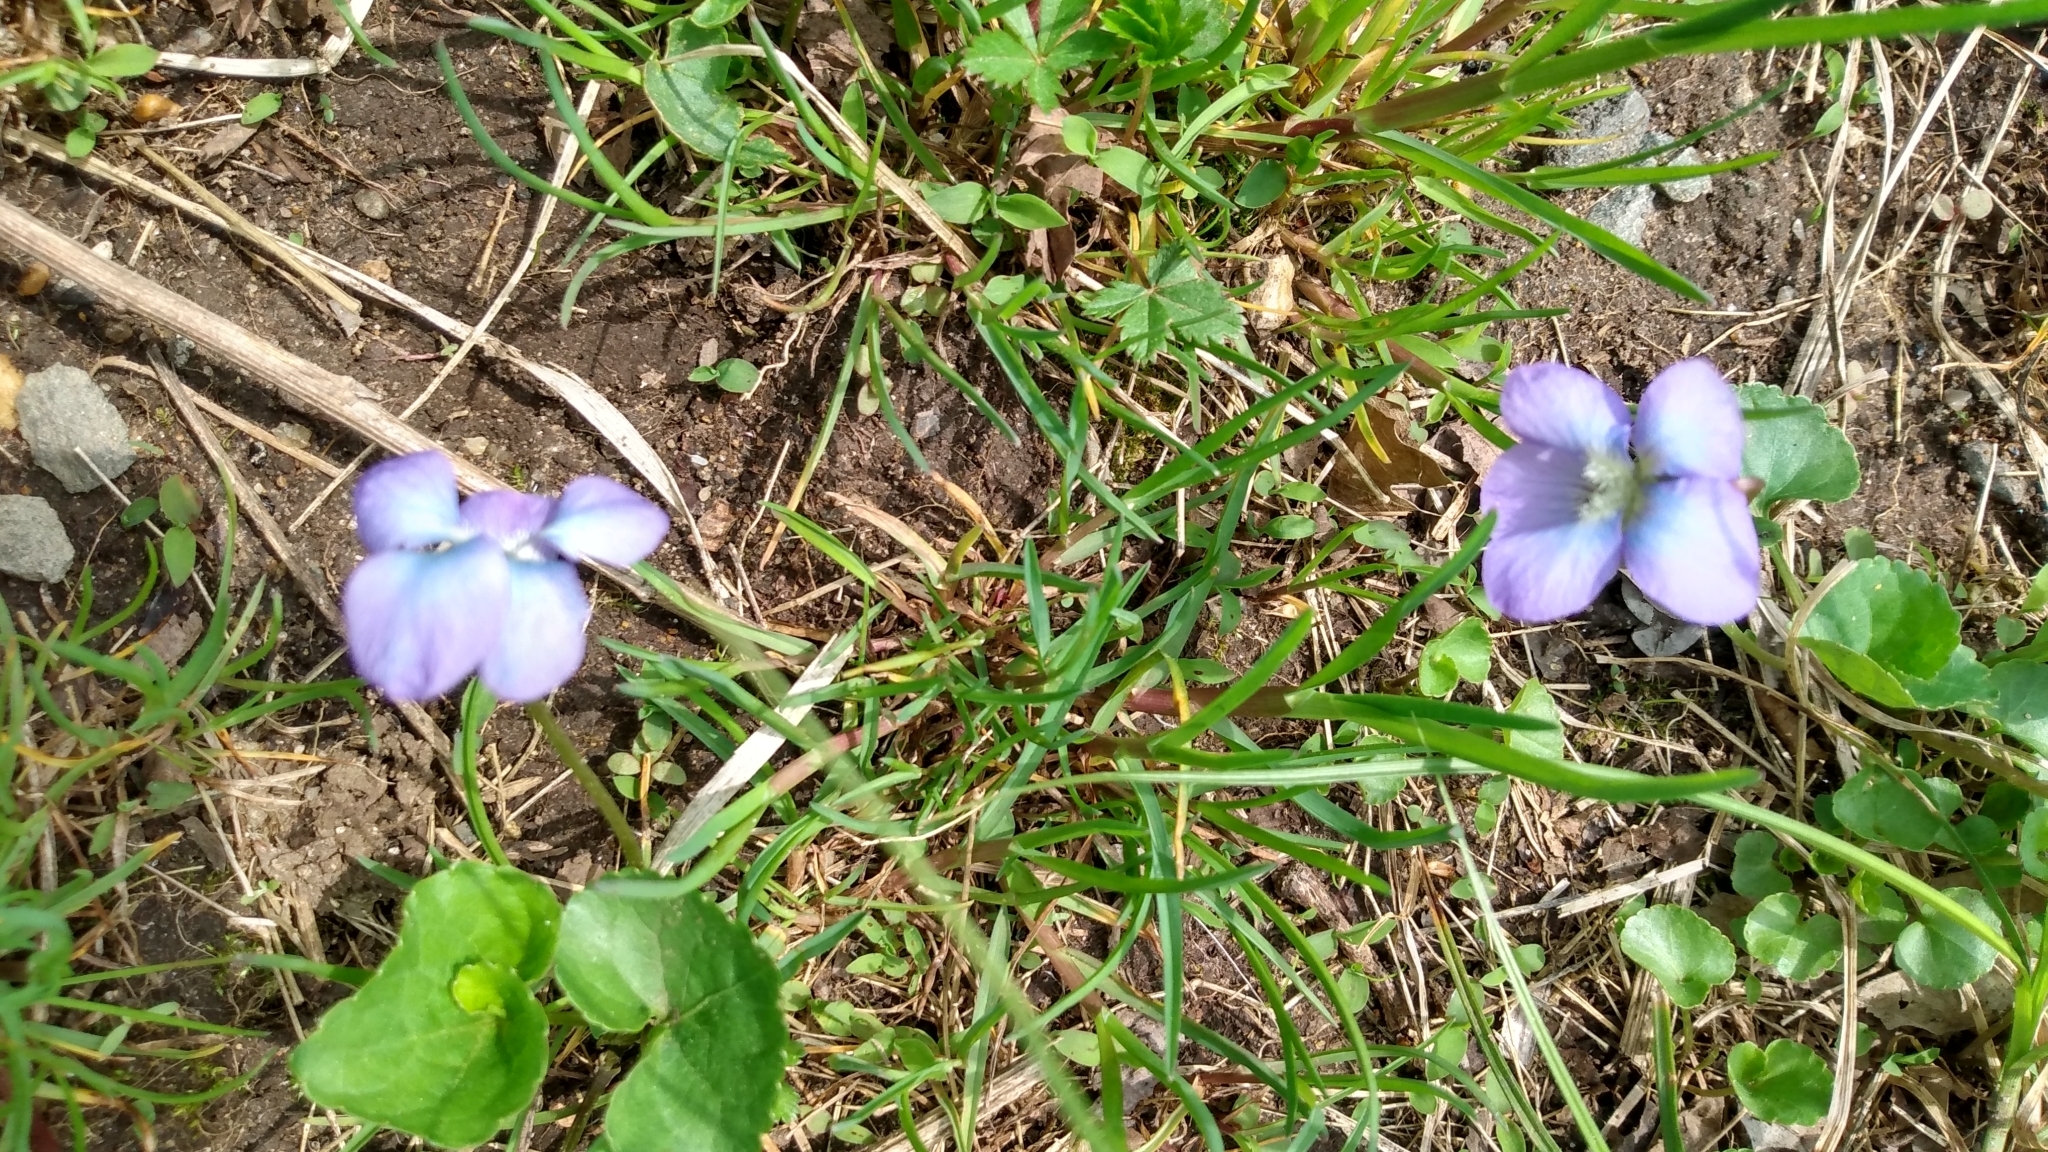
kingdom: Plantae
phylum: Tracheophyta
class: Magnoliopsida
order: Malpighiales
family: Violaceae
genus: Viola
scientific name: Viola sororia
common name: Dooryard violet
